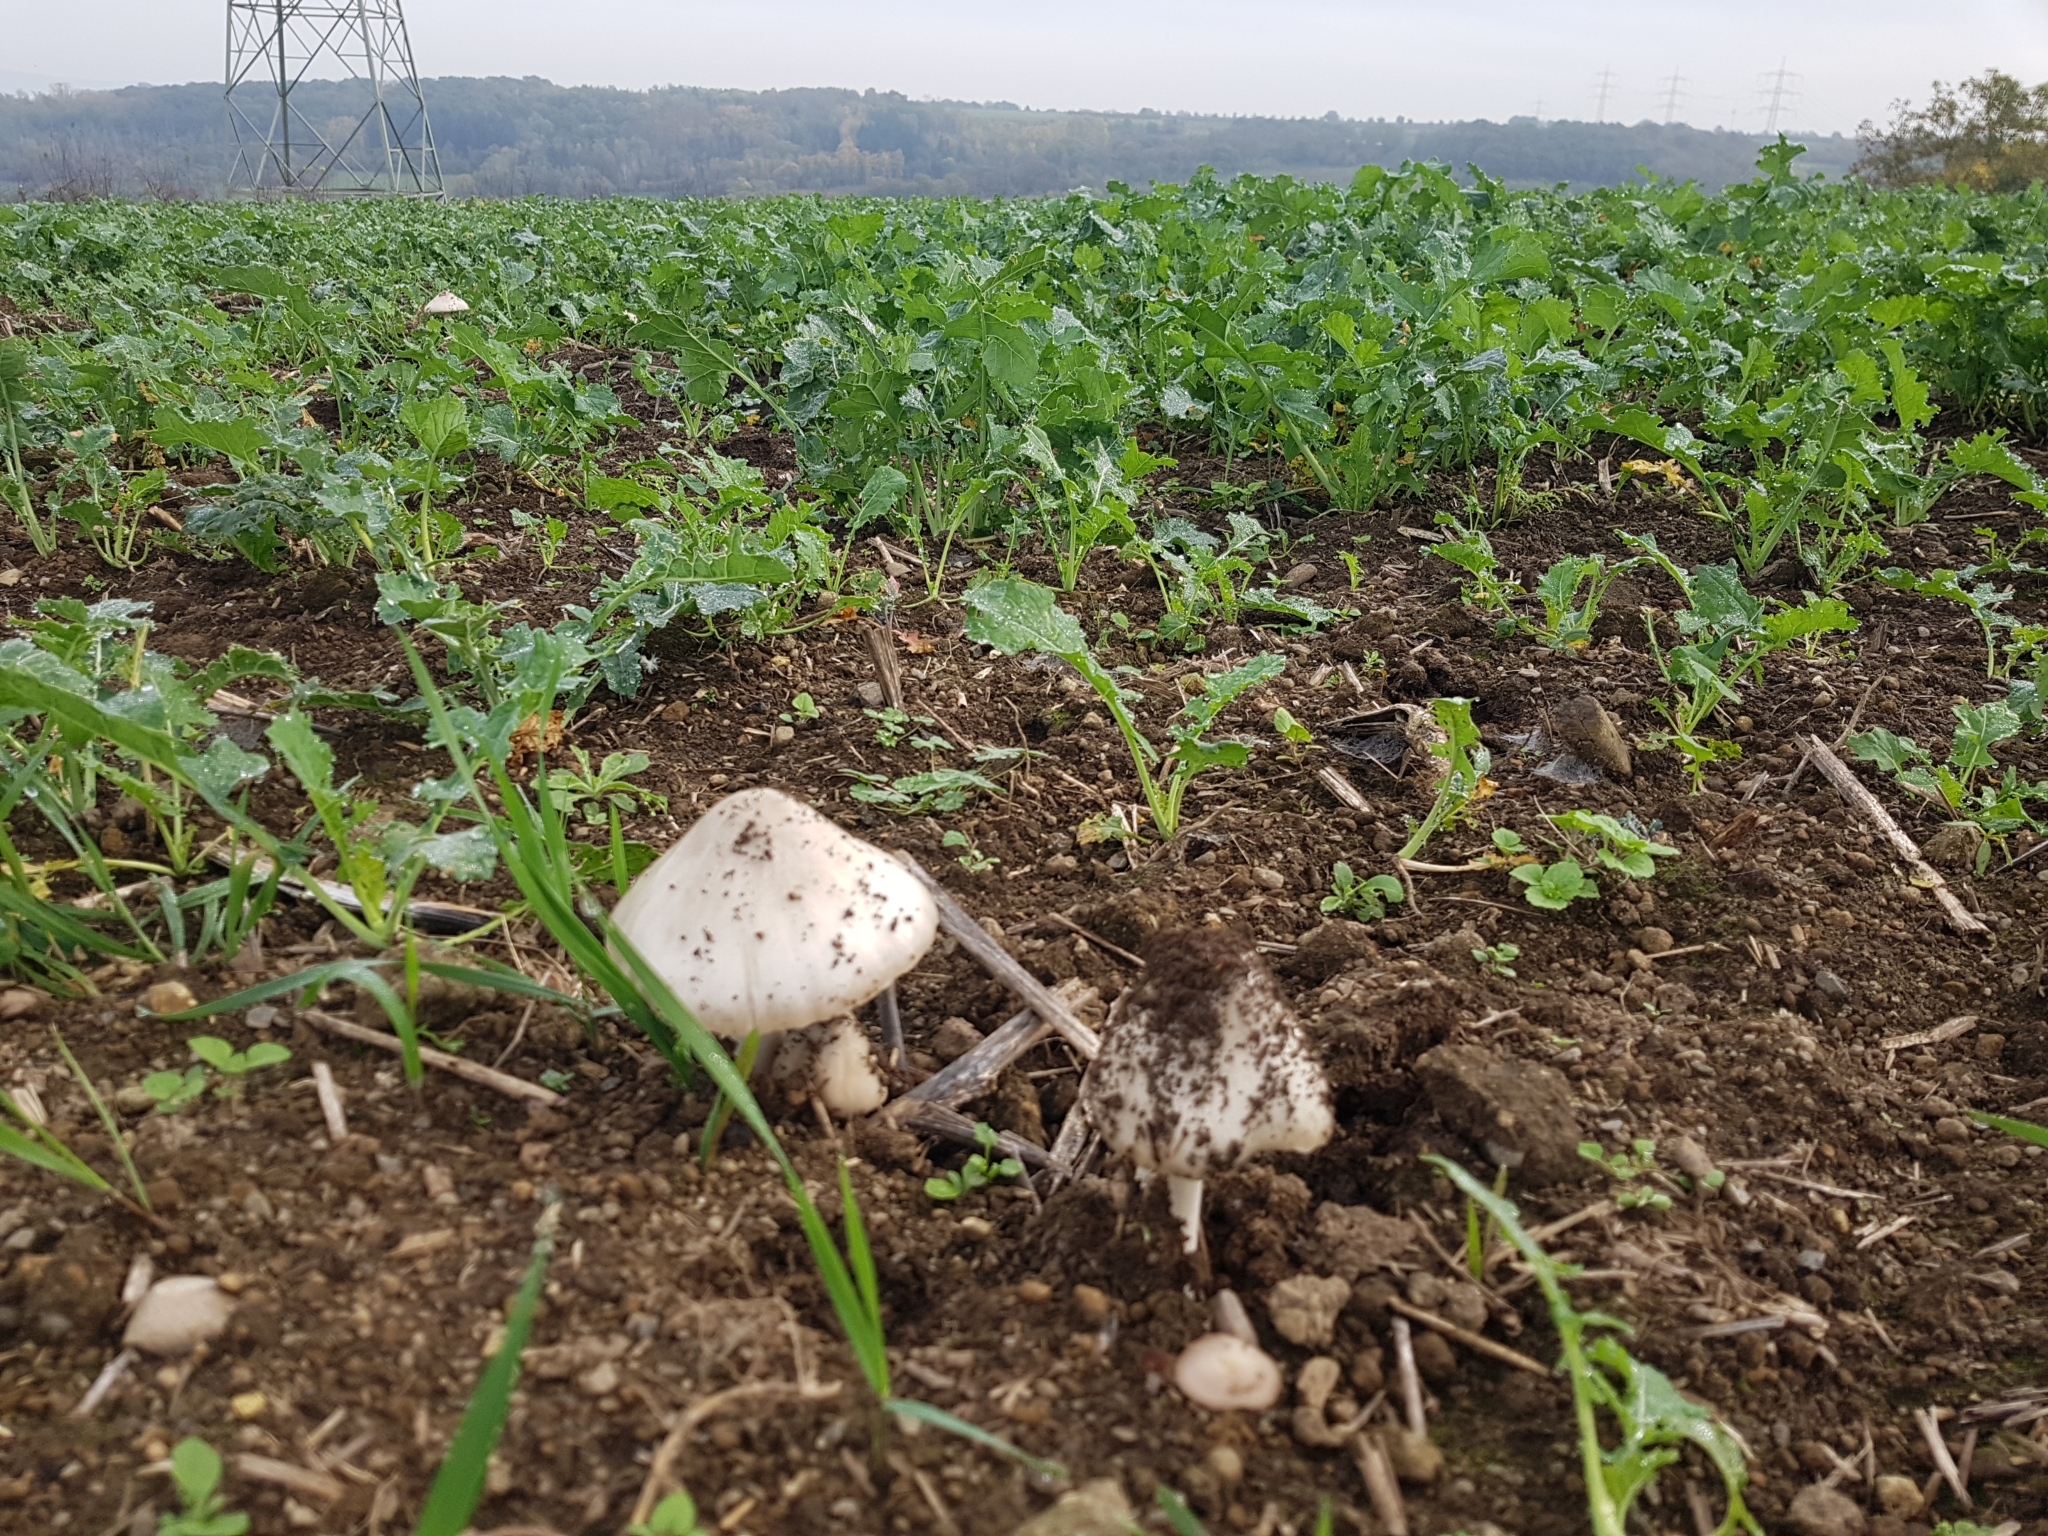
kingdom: Fungi
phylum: Basidiomycota
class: Agaricomycetes
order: Agaricales
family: Pluteaceae
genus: Volvopluteus
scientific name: Volvopluteus gloiocephalus
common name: Stubble rosegill
